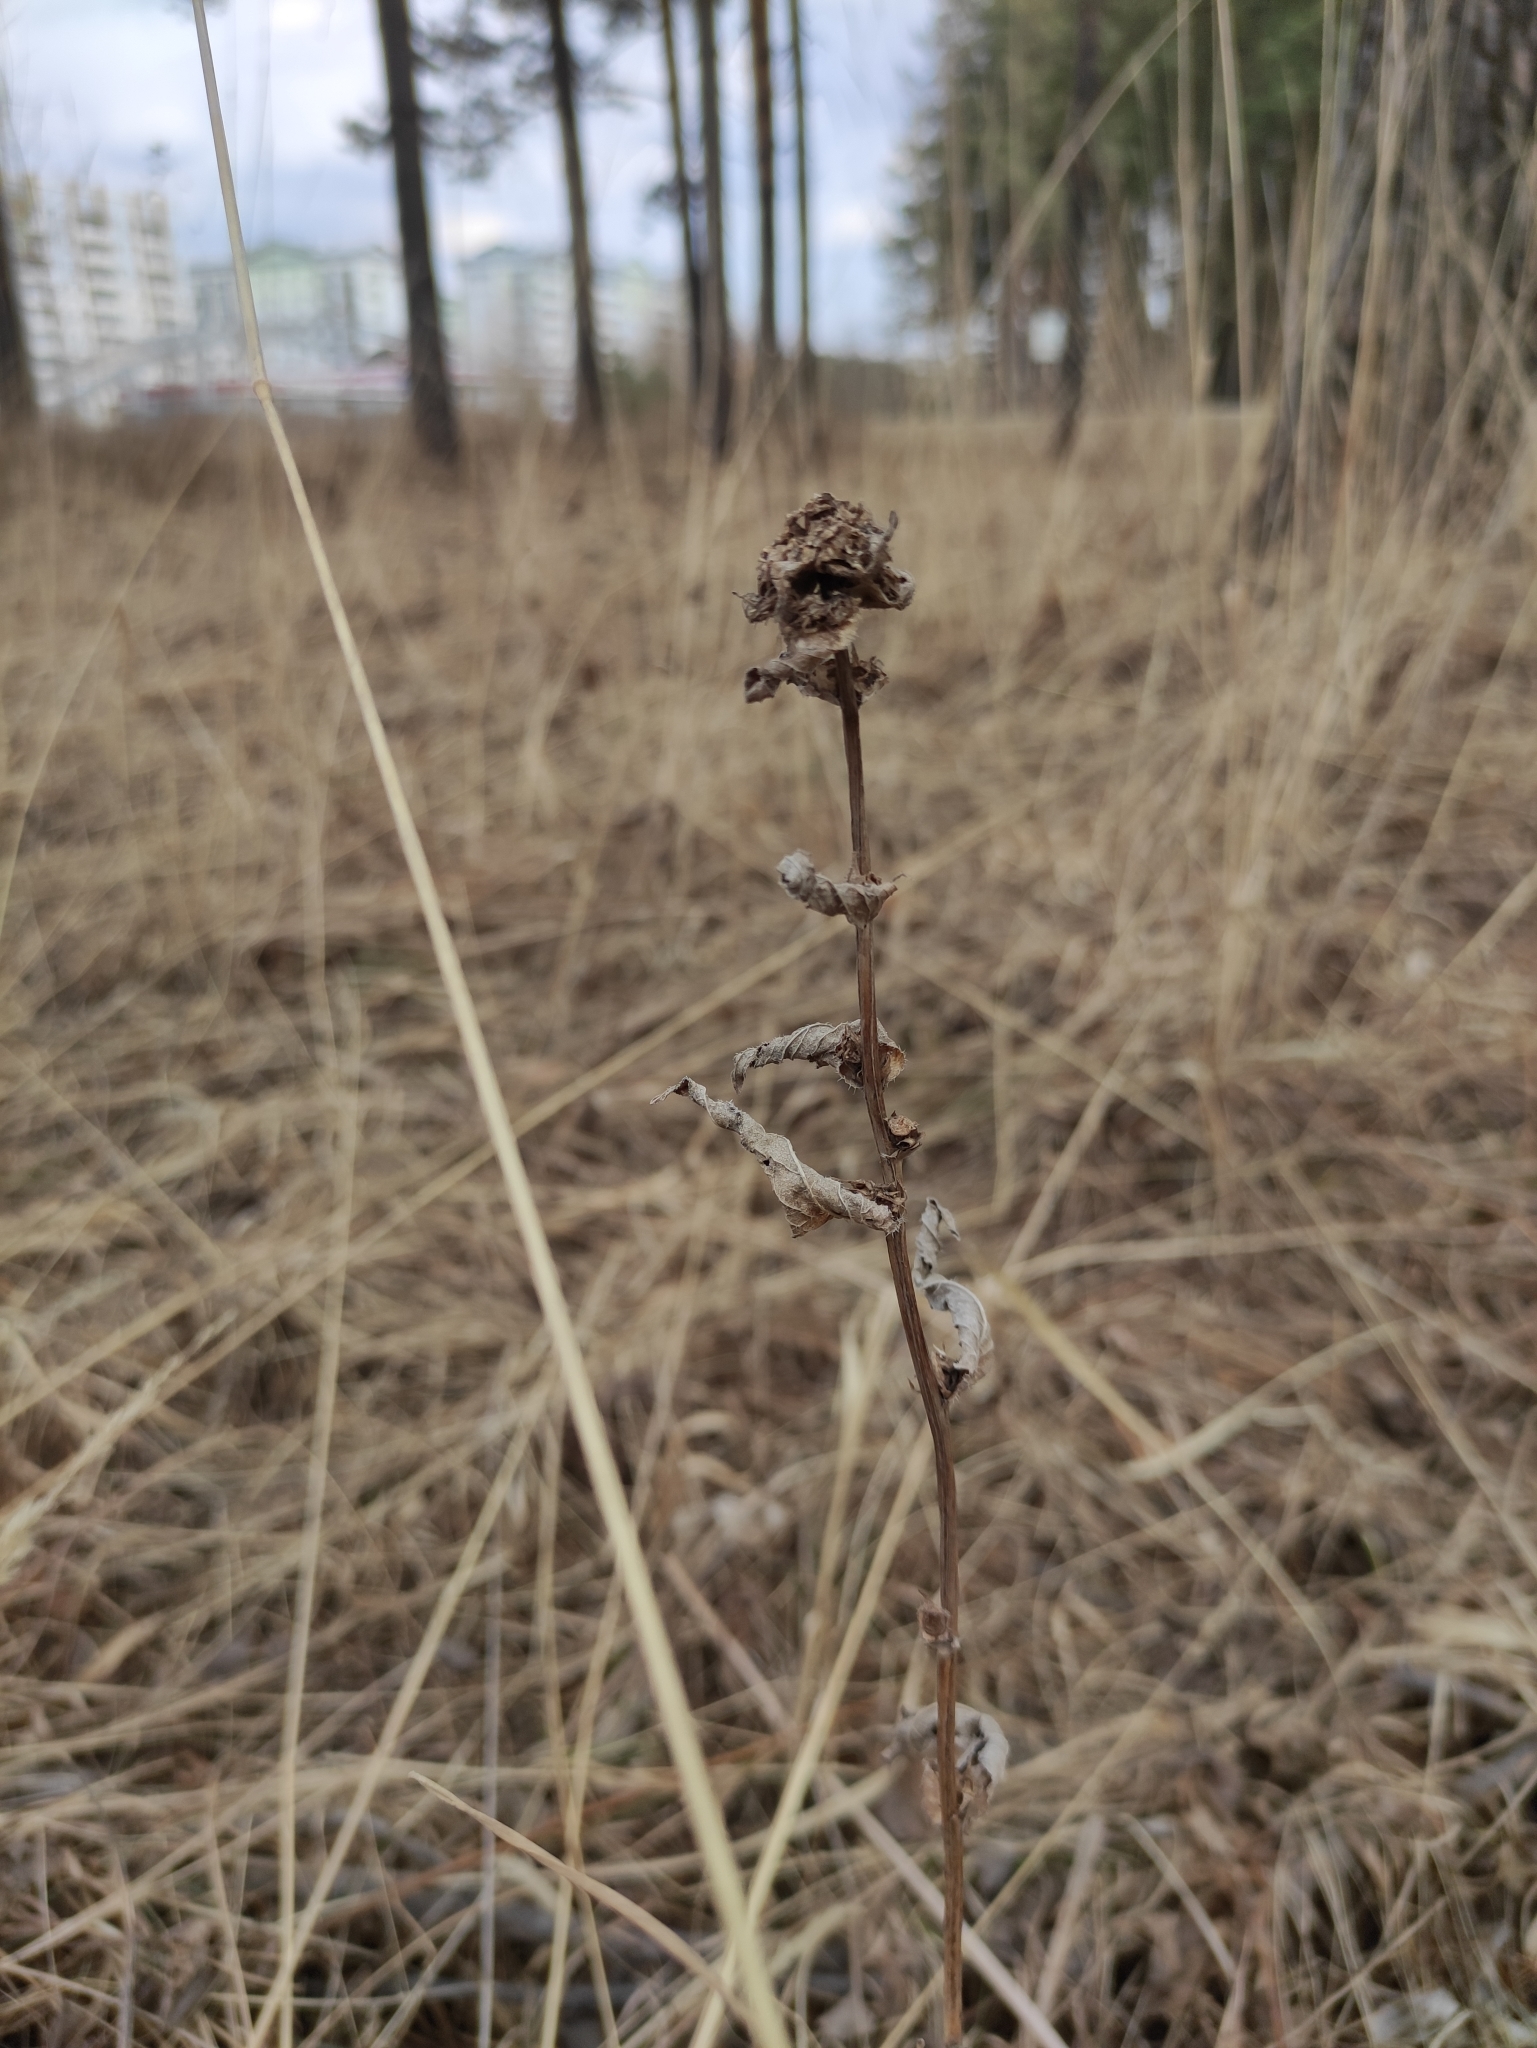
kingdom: Plantae
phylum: Tracheophyta
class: Magnoliopsida
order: Asterales
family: Campanulaceae
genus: Campanula
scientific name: Campanula glomerata
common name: Clustered bellflower
